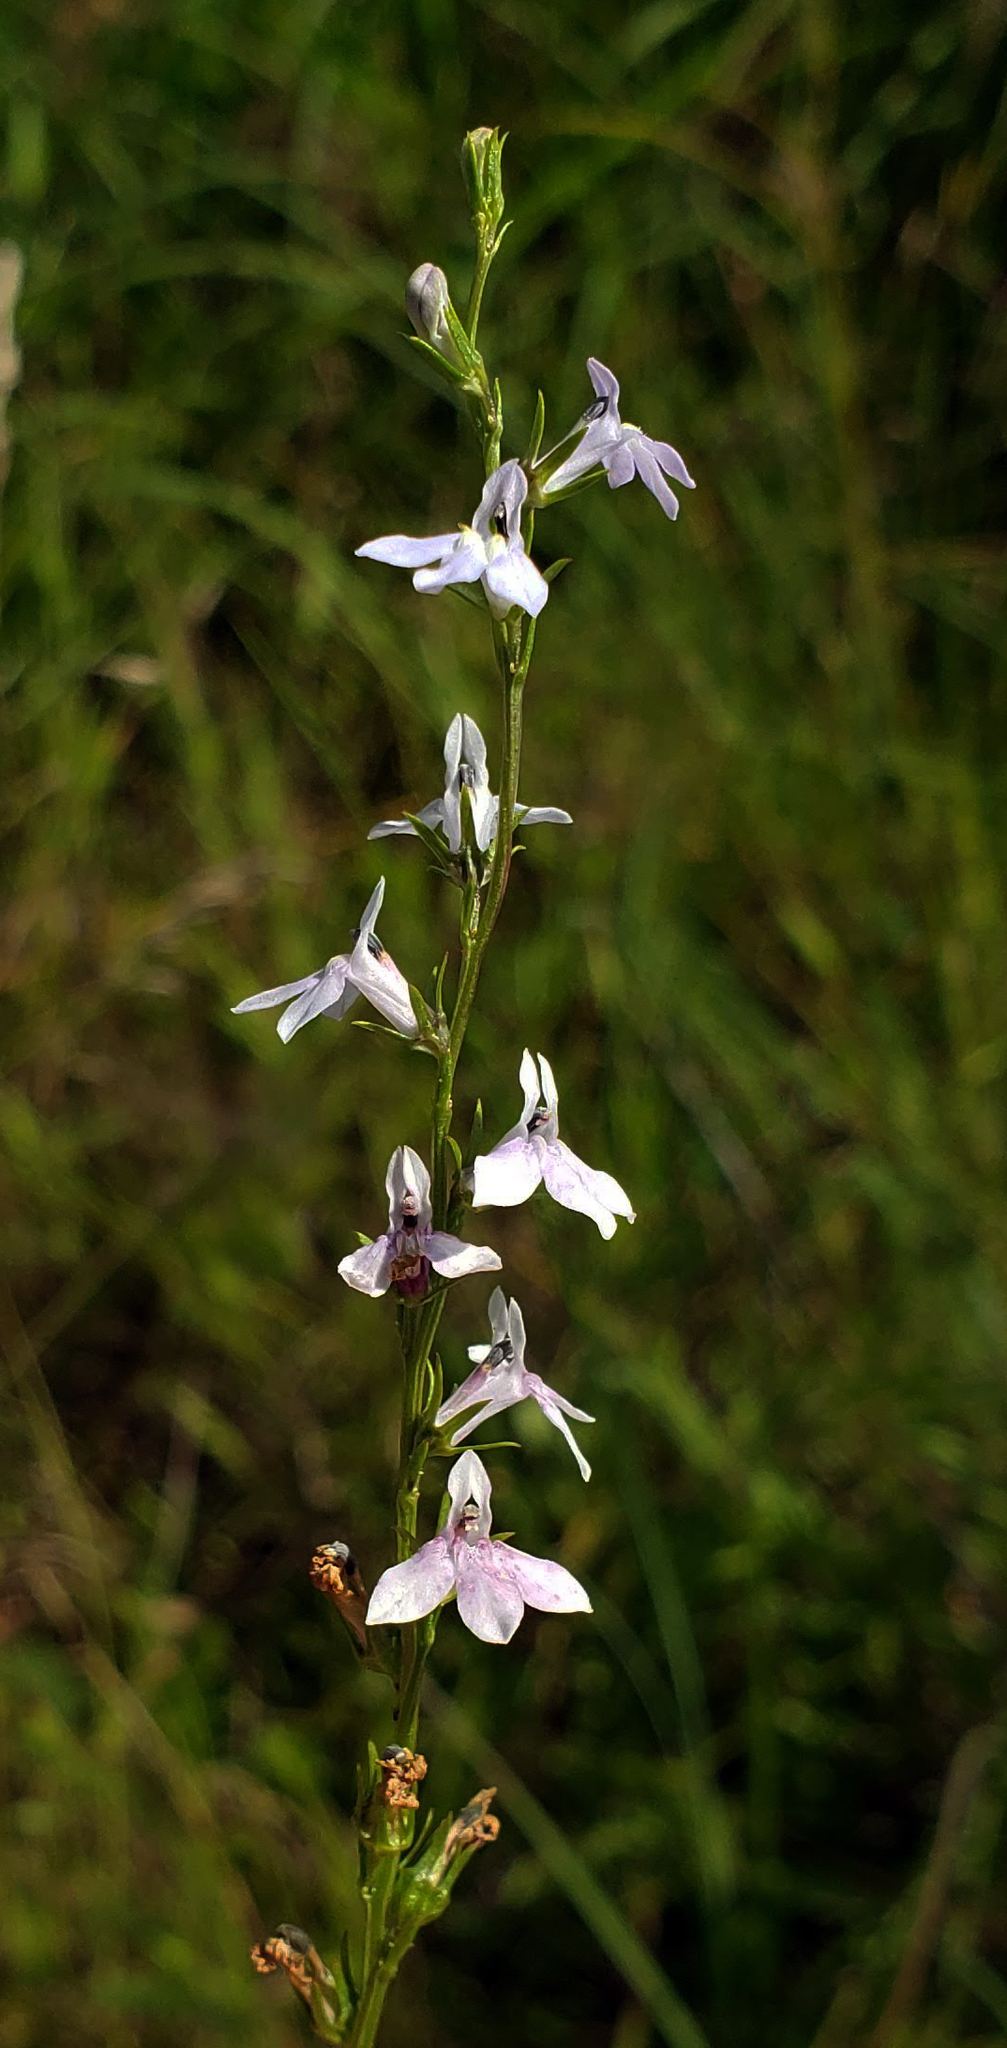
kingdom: Plantae
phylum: Tracheophyta
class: Magnoliopsida
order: Asterales
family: Campanulaceae
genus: Lobelia
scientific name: Lobelia spicata
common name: Pale-spike lobelia
